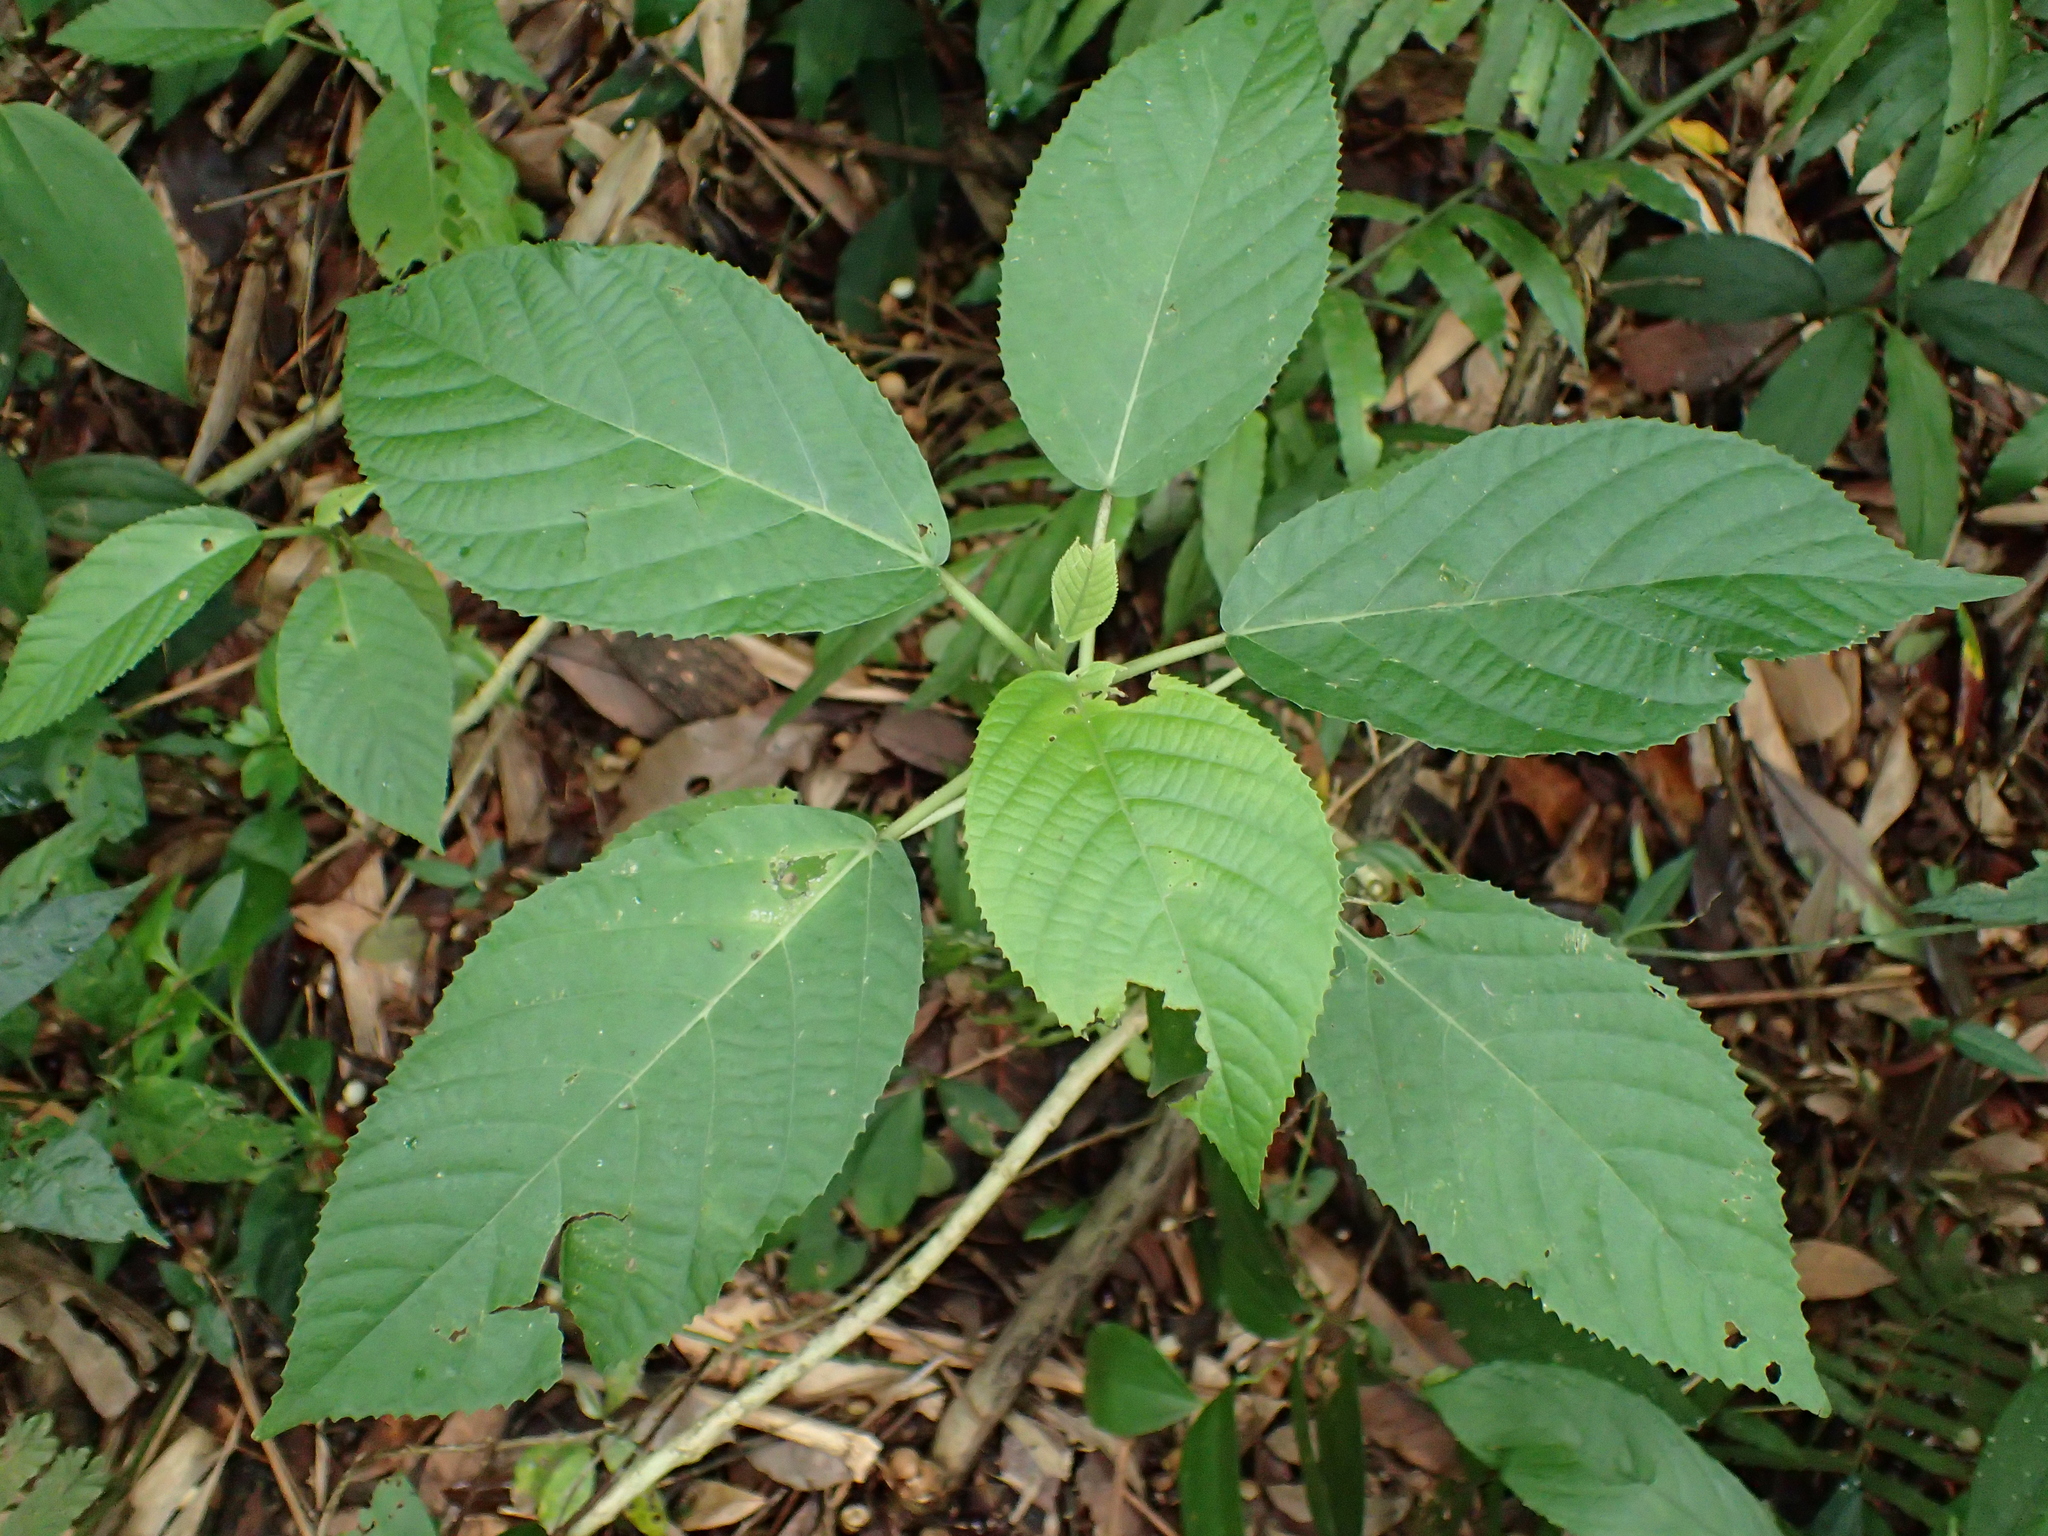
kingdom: Plantae
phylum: Tracheophyta
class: Magnoliopsida
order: Rosales
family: Urticaceae
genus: Dendrocnide
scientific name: Dendrocnide meyeniana
